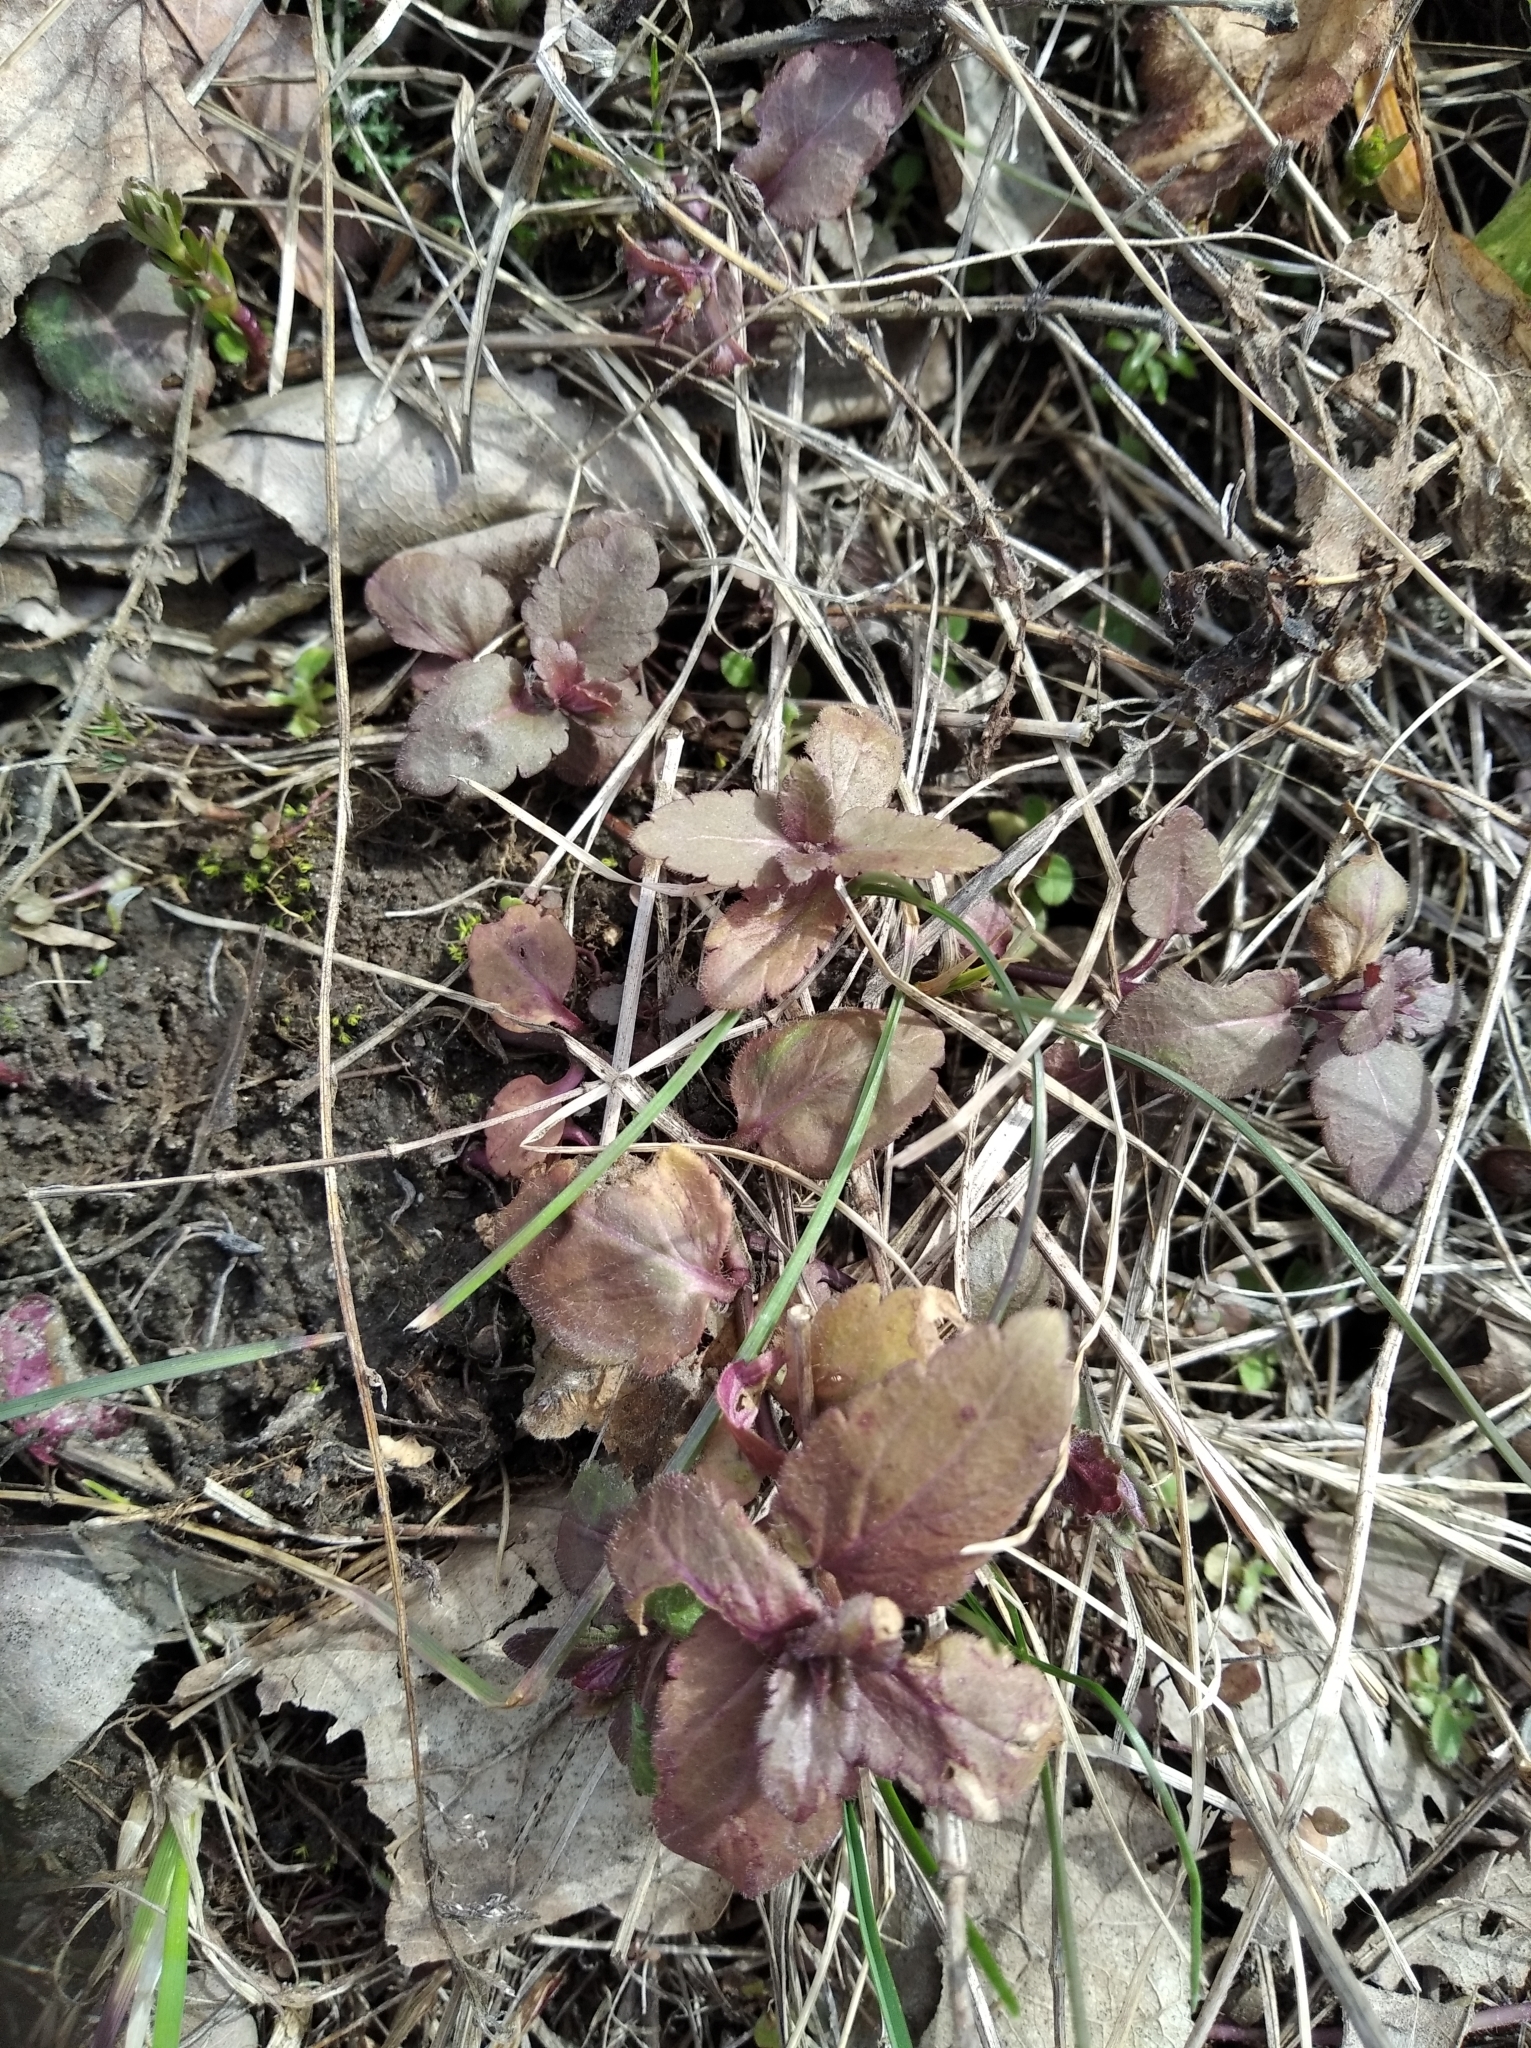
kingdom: Plantae
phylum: Tracheophyta
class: Magnoliopsida
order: Lamiales
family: Lamiaceae
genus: Ajuga
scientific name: Ajuga reptans
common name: Bugle
